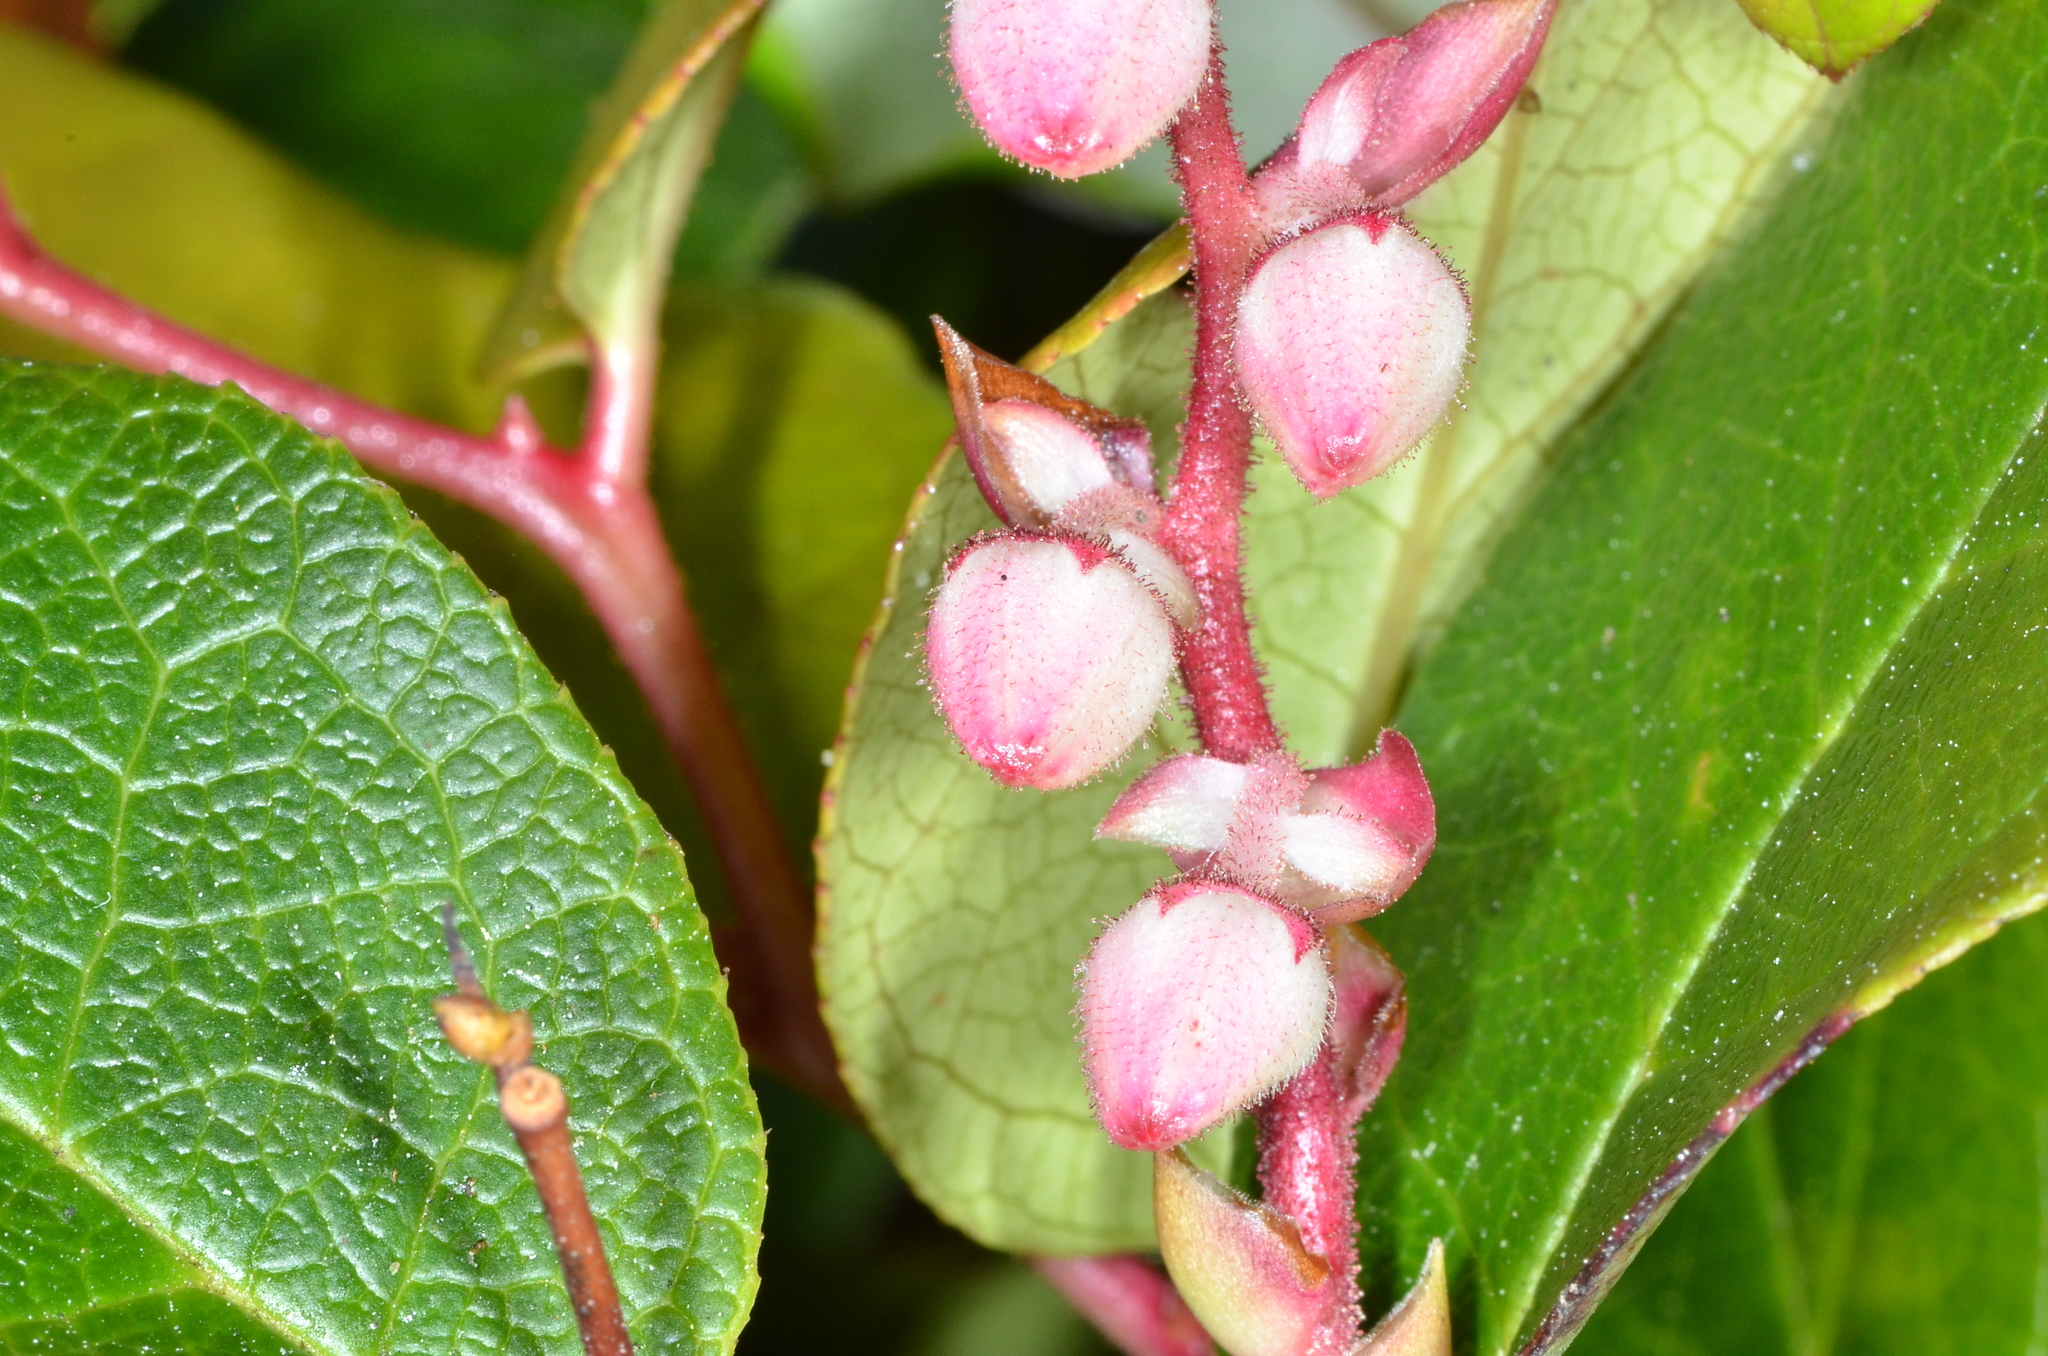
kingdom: Plantae
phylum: Tracheophyta
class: Magnoliopsida
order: Ericales
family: Ericaceae
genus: Gaultheria
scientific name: Gaultheria shallon
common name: Shallon
